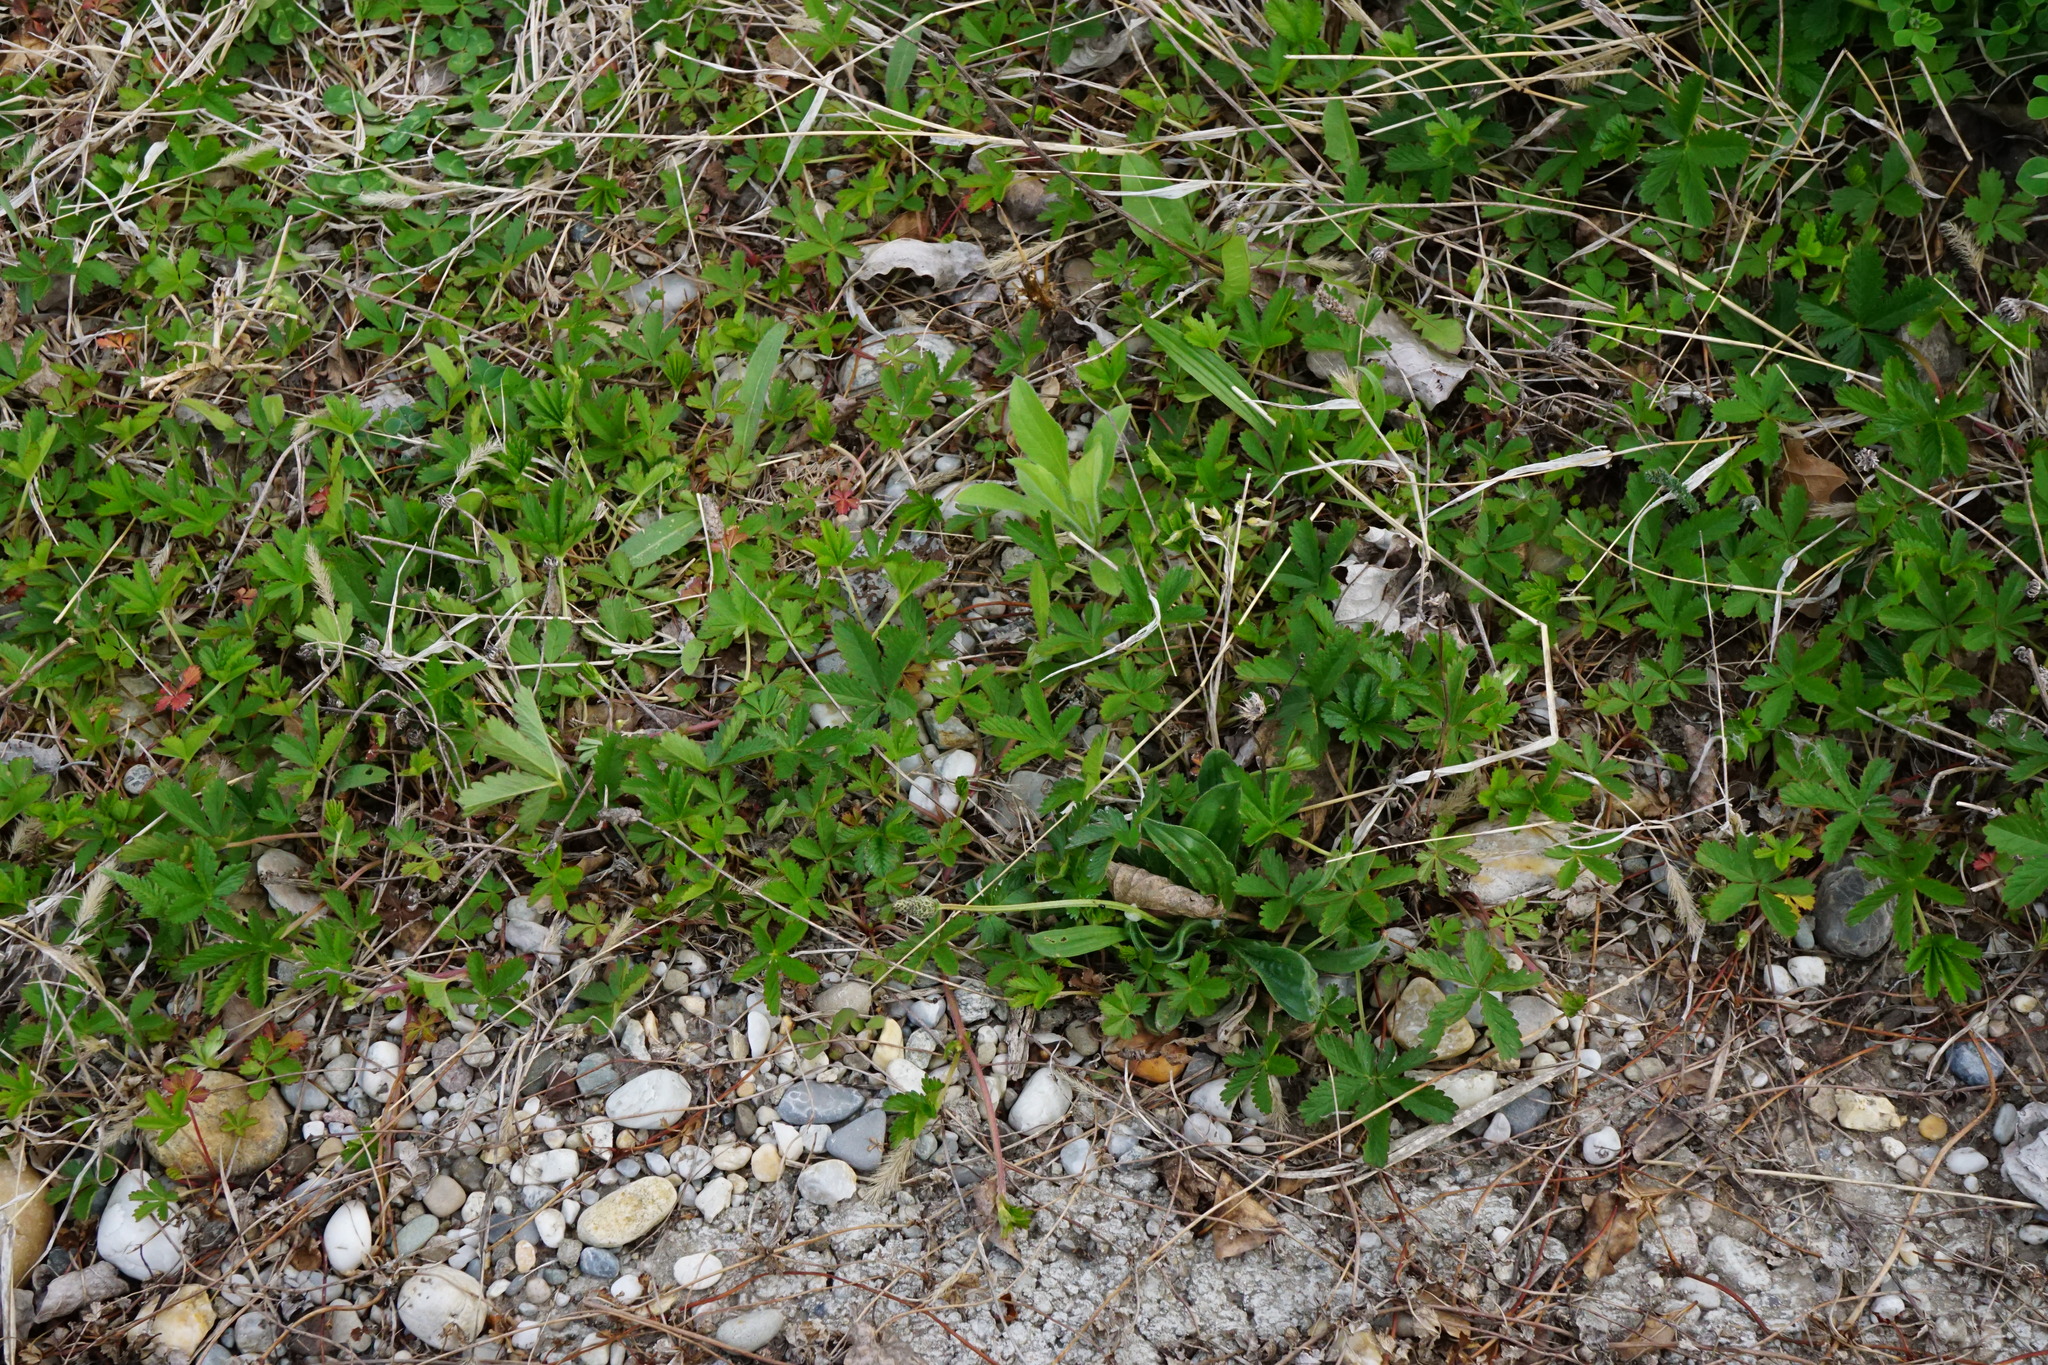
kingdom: Plantae
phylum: Tracheophyta
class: Magnoliopsida
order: Rosales
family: Rosaceae
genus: Potentilla
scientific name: Potentilla reptans
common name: Creeping cinquefoil
